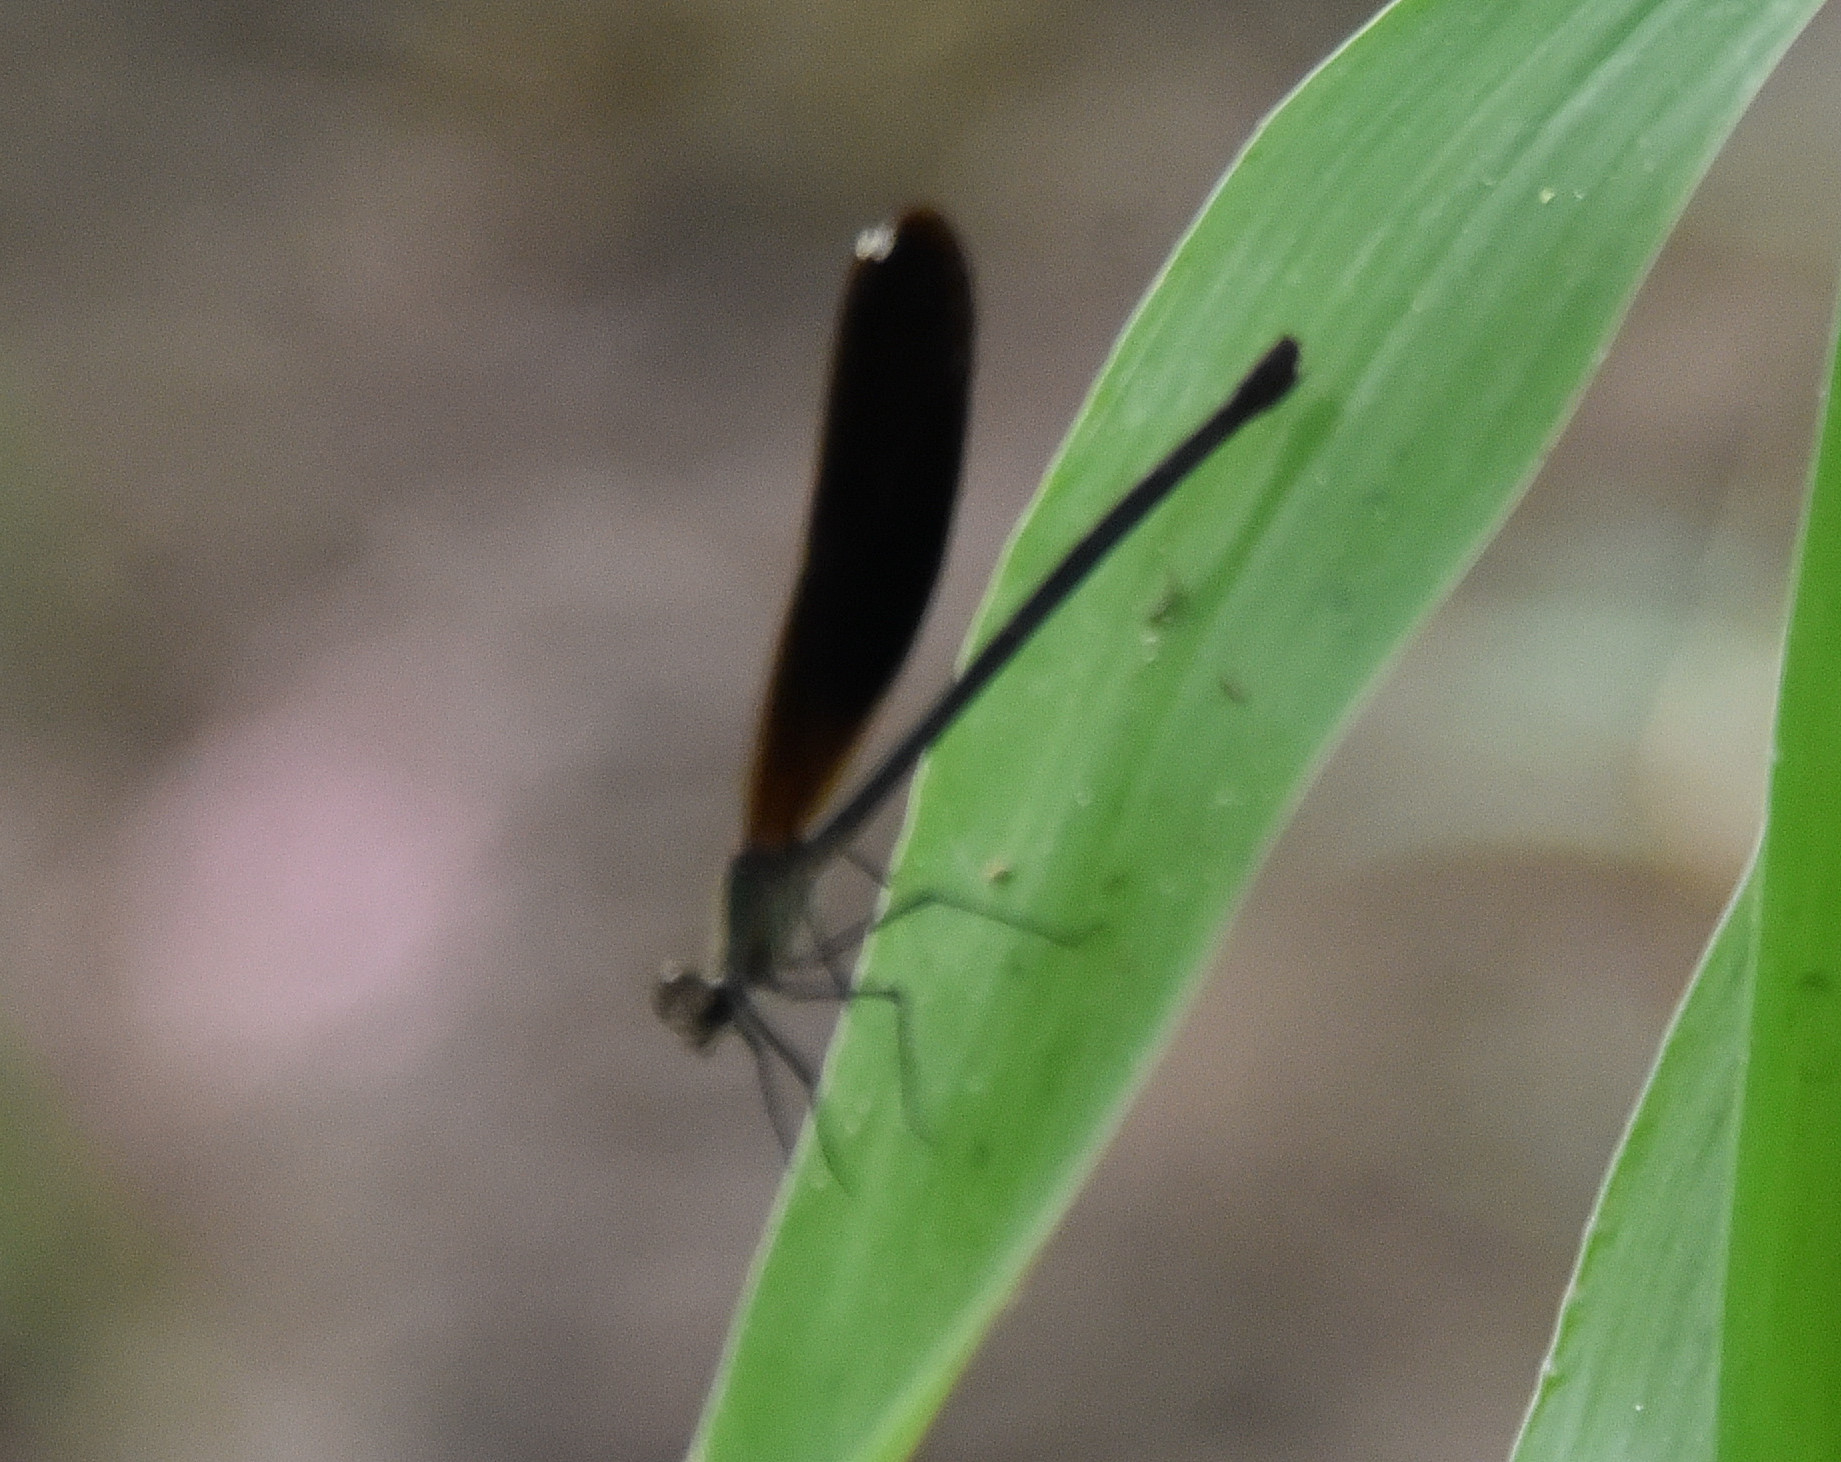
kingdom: Animalia
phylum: Arthropoda
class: Insecta
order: Odonata
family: Calopterygidae
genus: Hetaerina
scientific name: Hetaerina titia
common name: Smoky rubyspot
